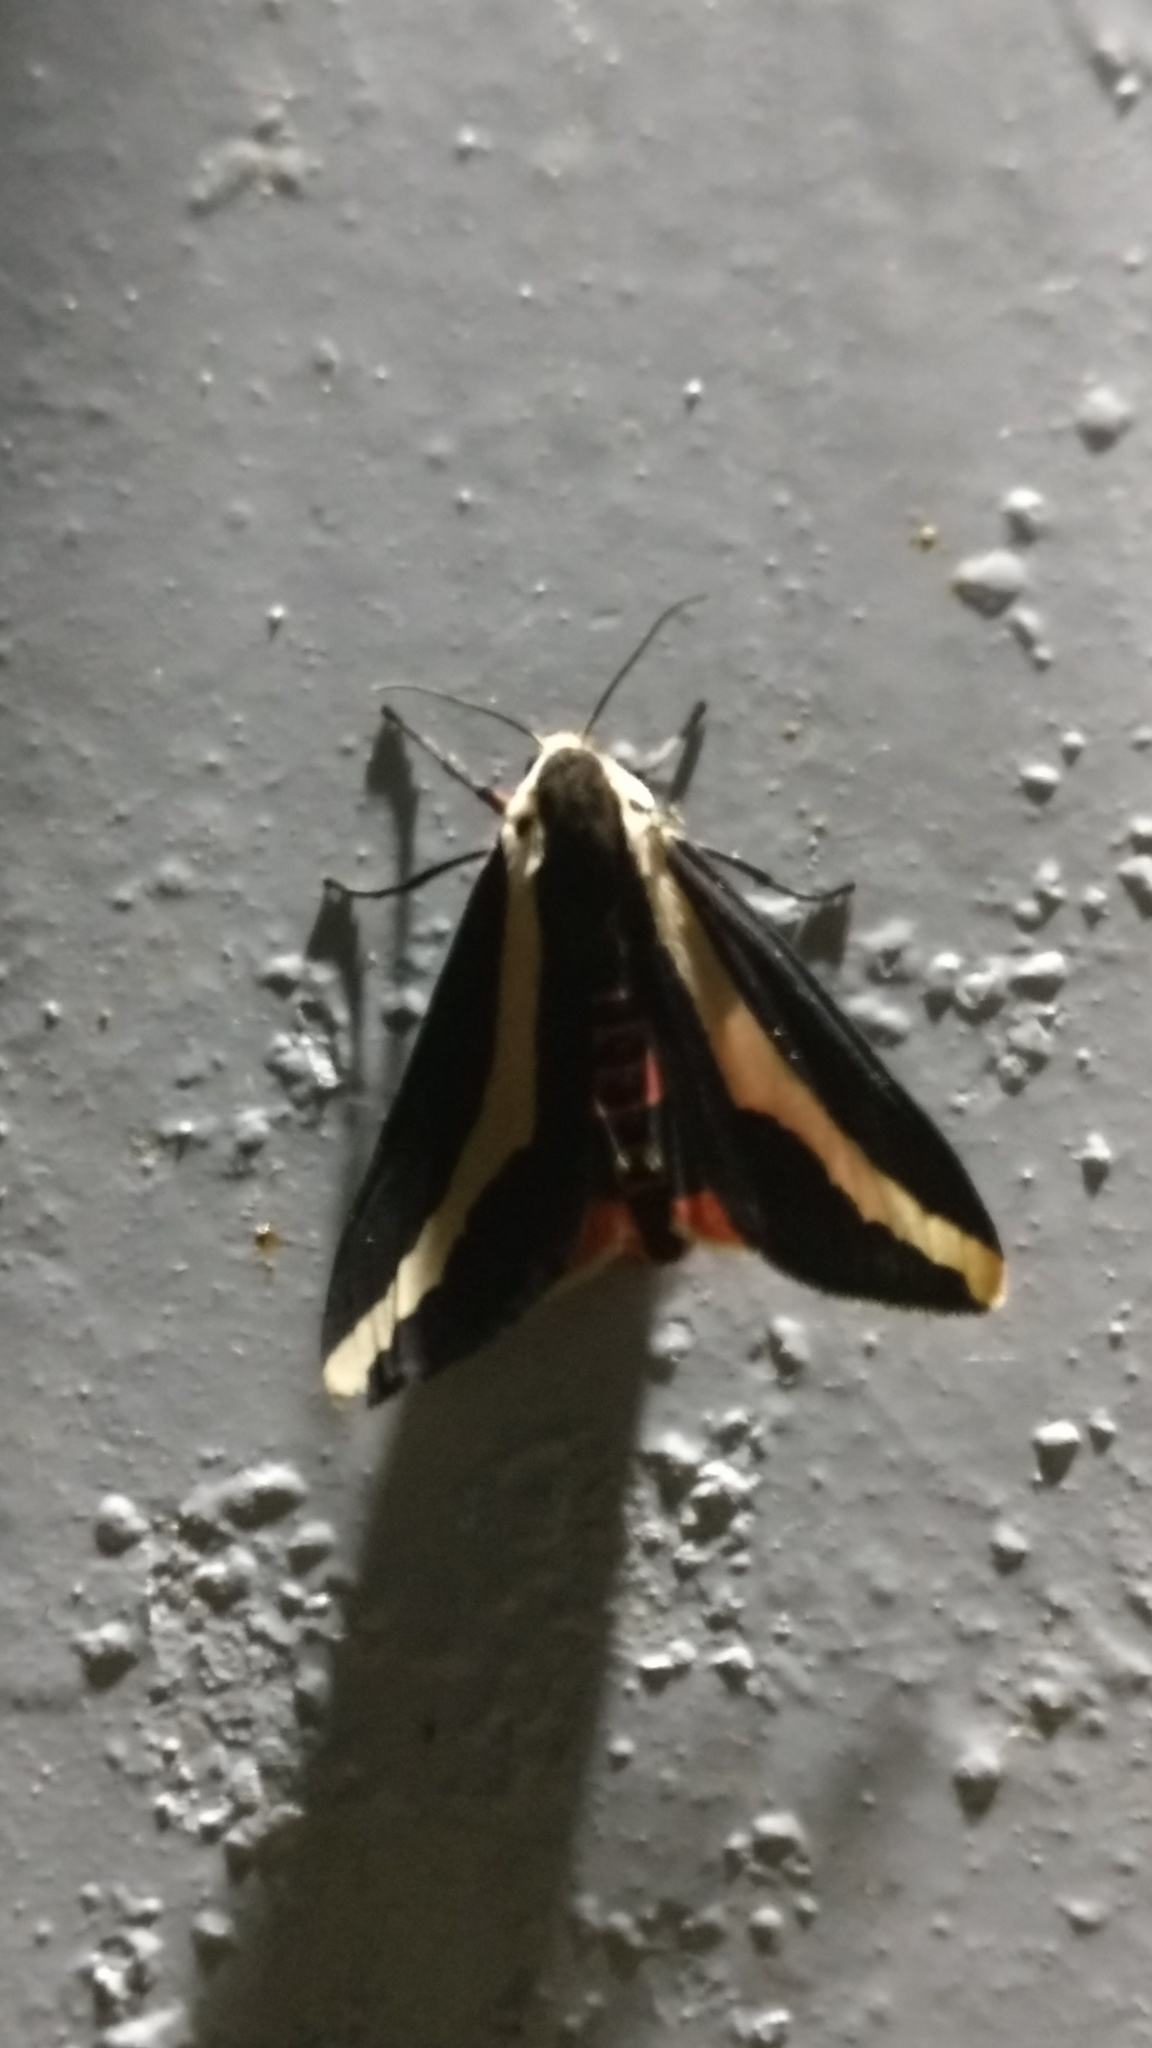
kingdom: Animalia
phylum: Arthropoda
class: Insecta
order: Lepidoptera
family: Erebidae
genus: Estigmene
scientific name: Estigmene
